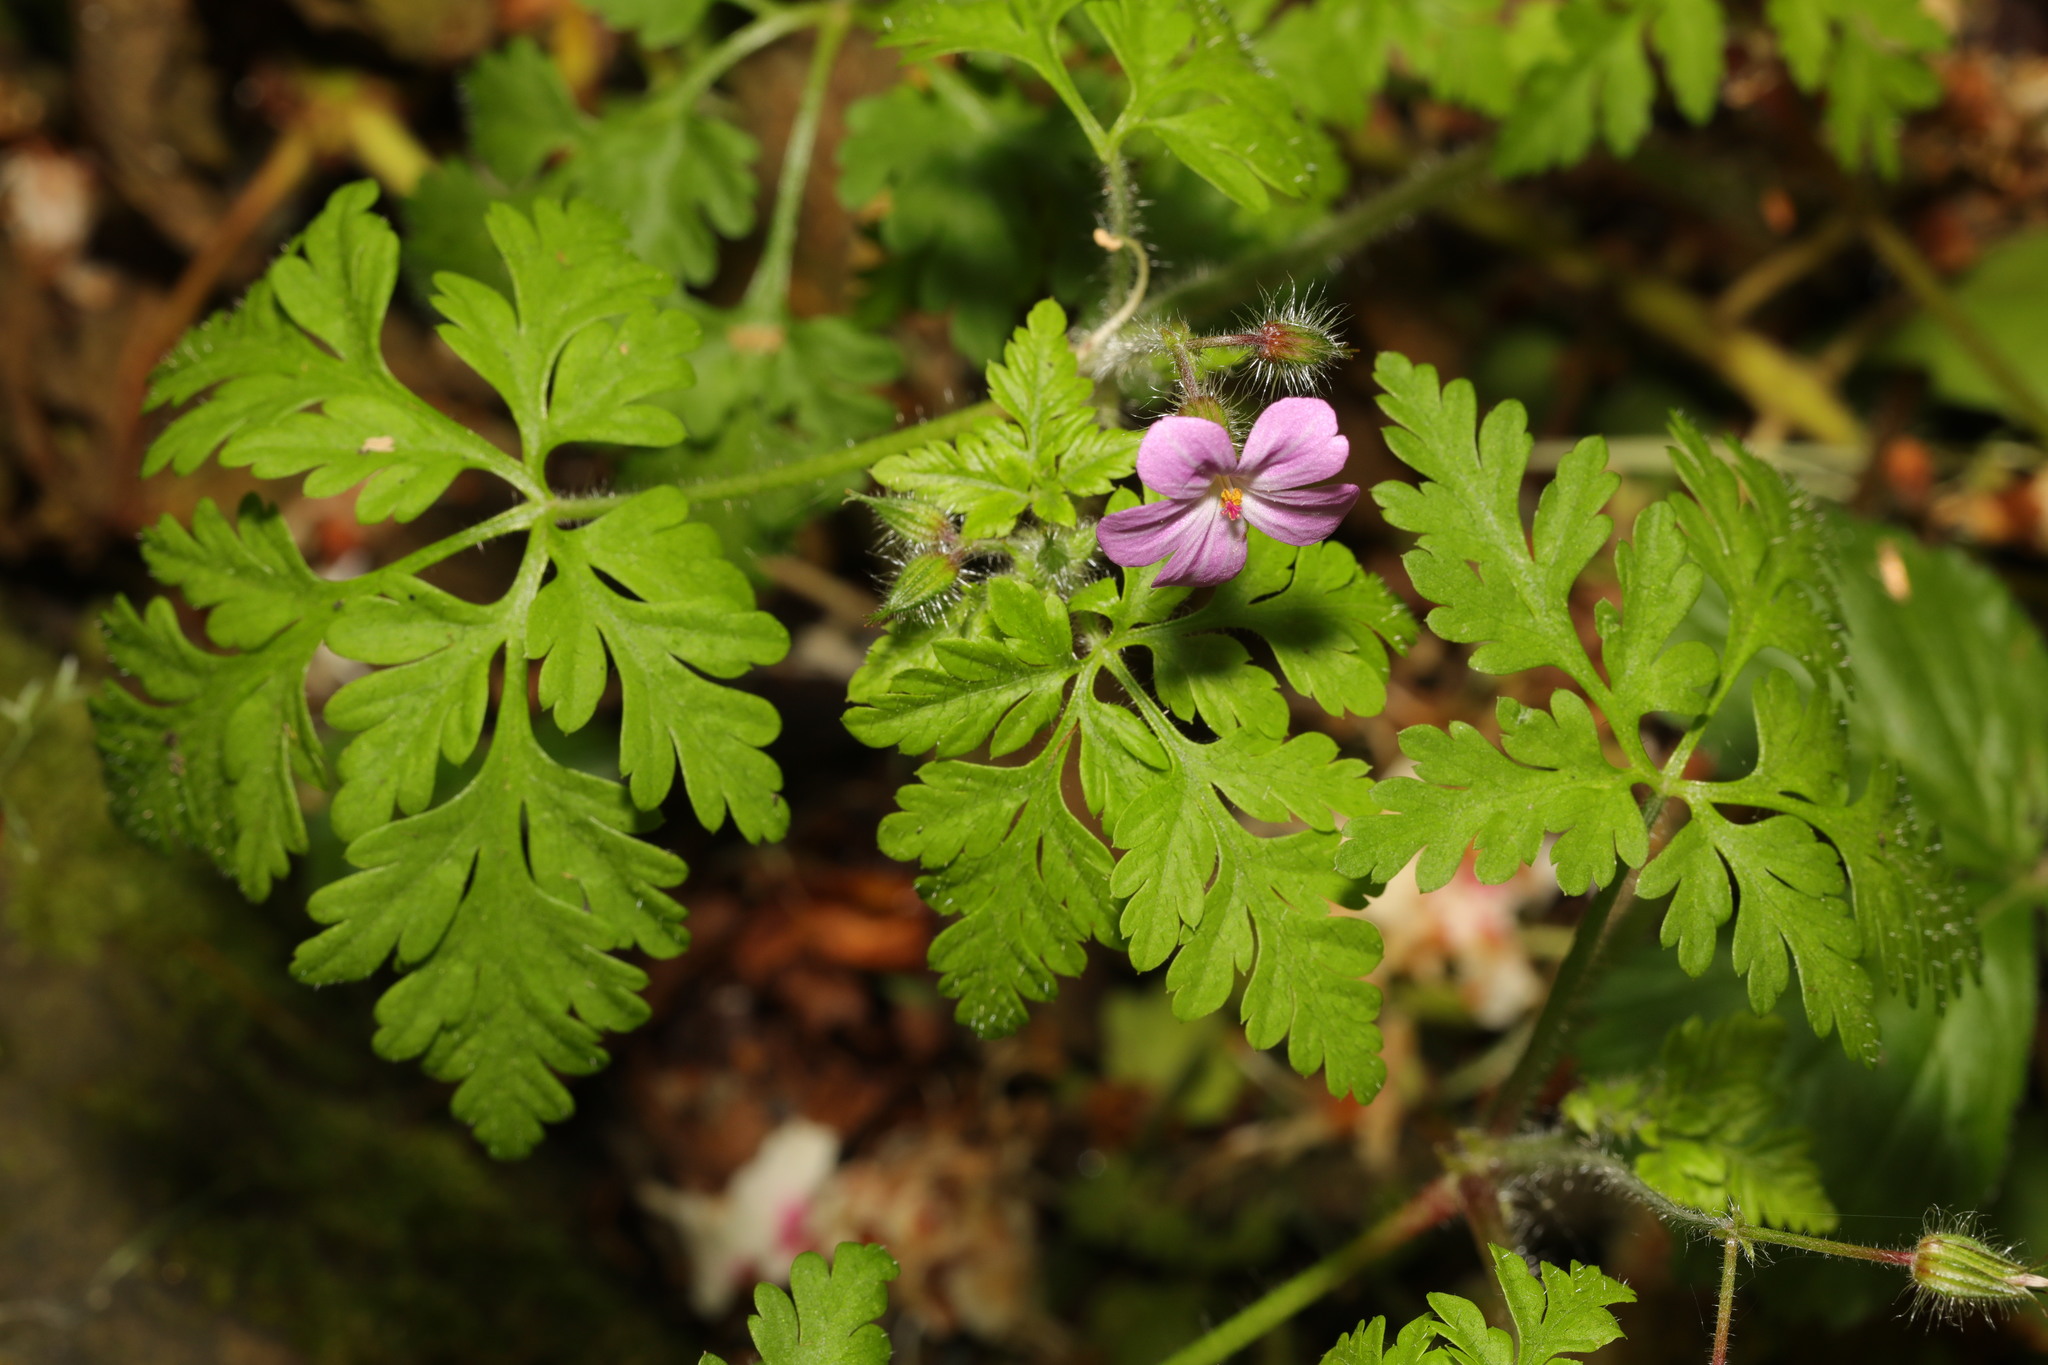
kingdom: Plantae
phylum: Tracheophyta
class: Magnoliopsida
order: Geraniales
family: Geraniaceae
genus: Geranium
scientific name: Geranium robertianum
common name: Herb-robert
